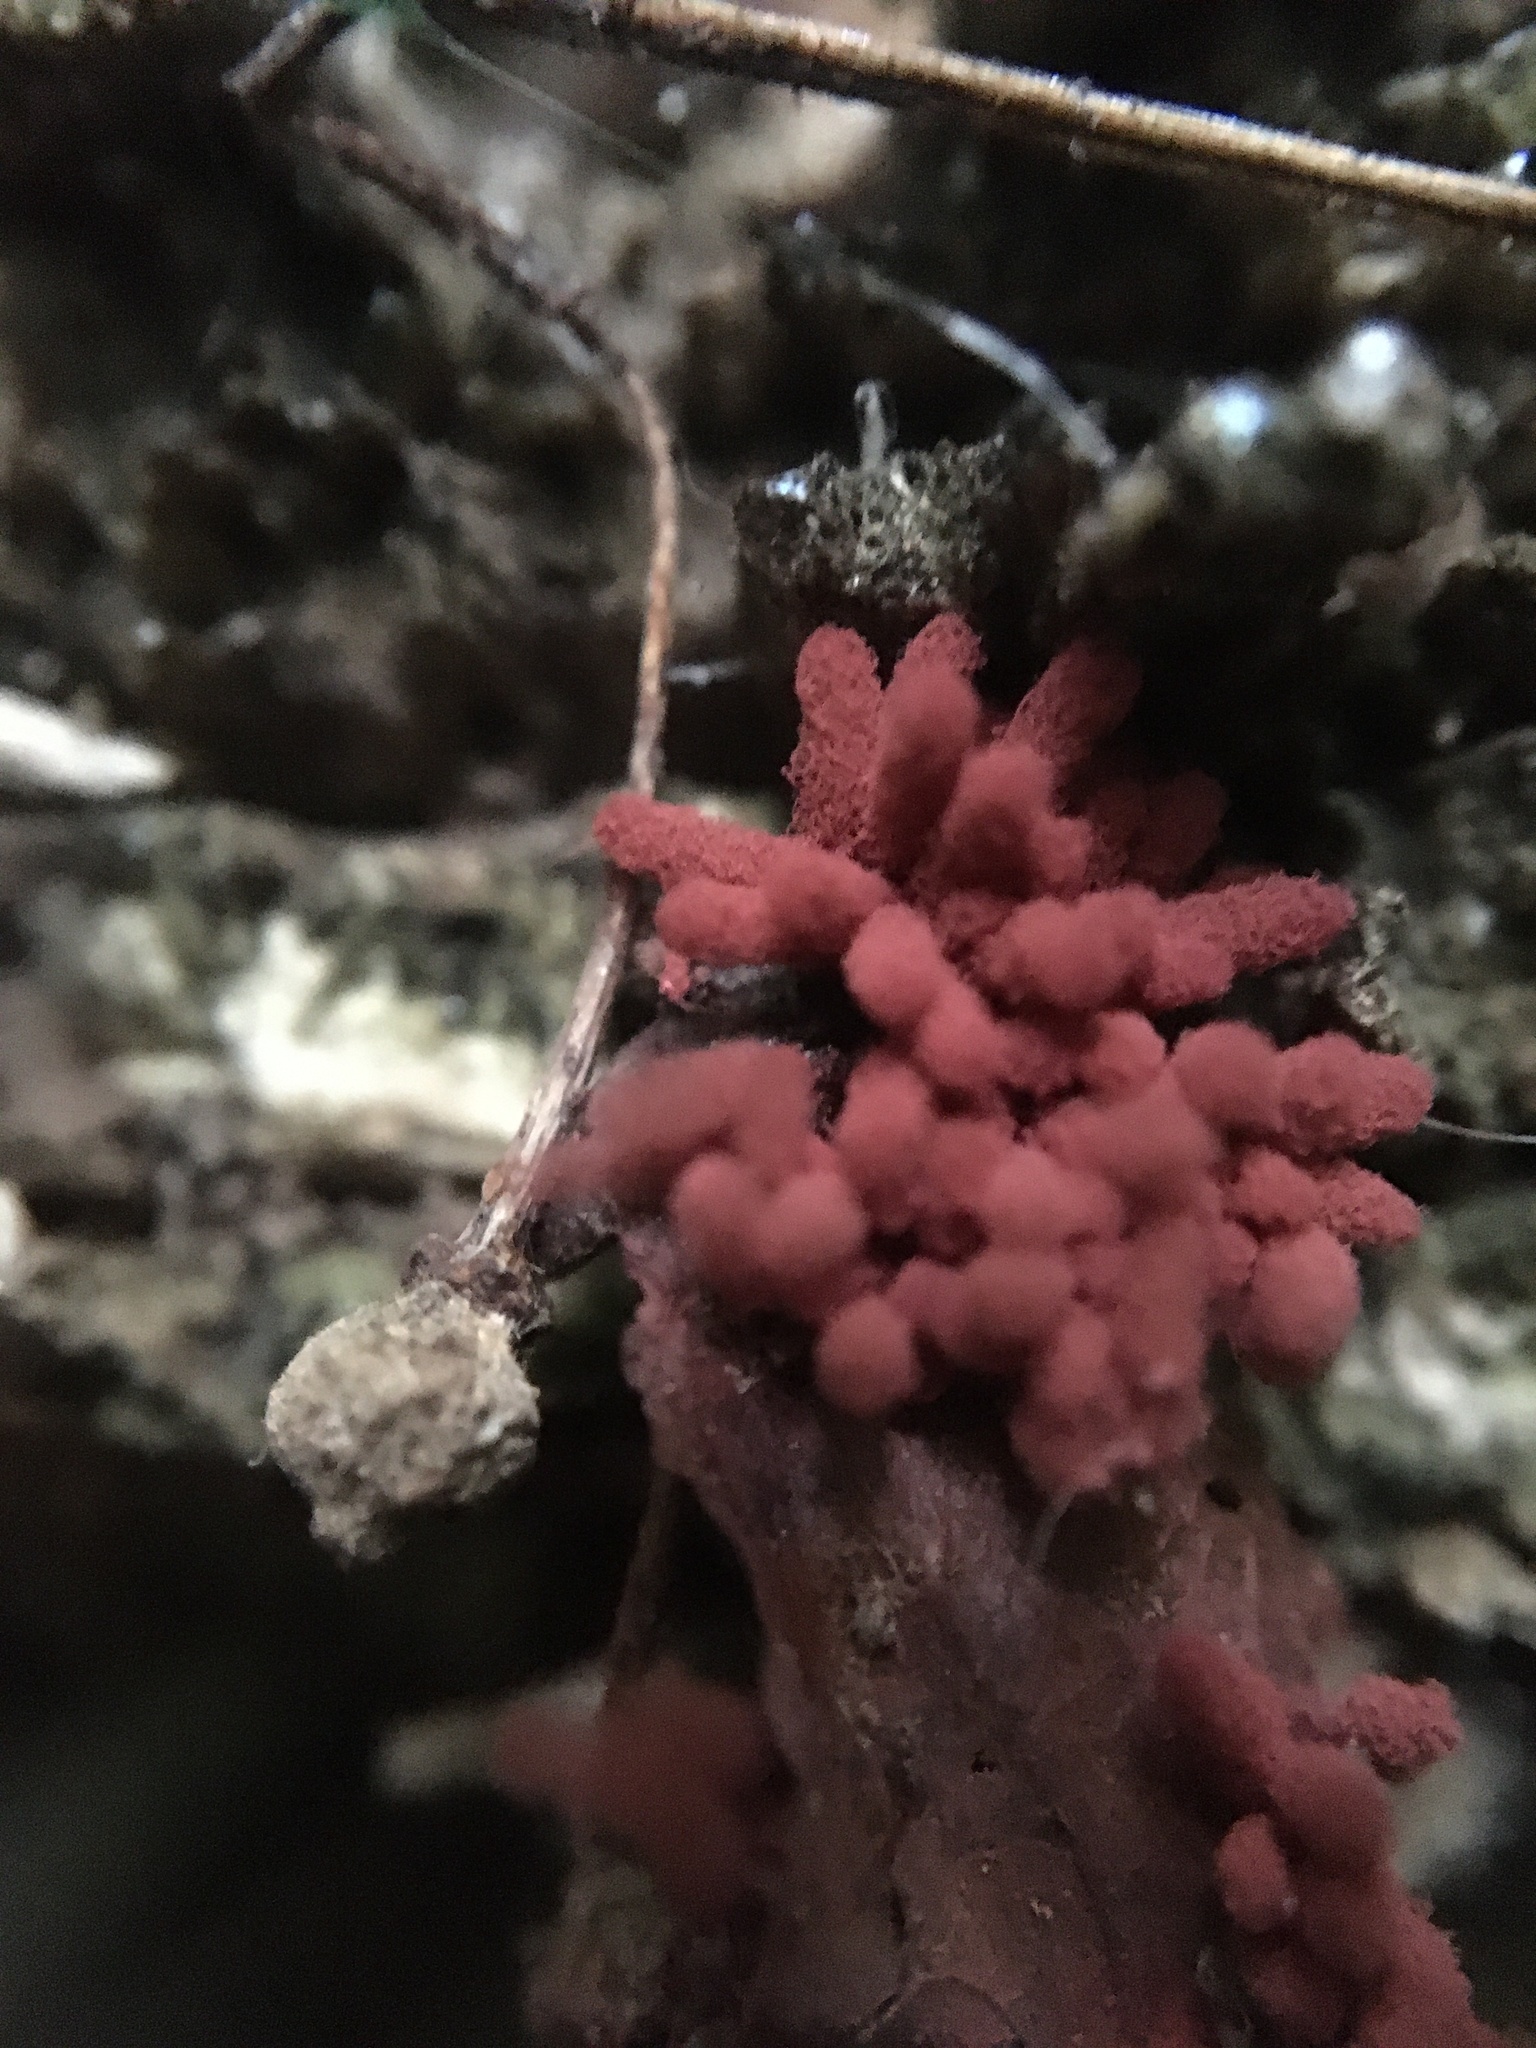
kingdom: Protozoa
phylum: Mycetozoa
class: Myxomycetes
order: Trichiales
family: Arcyriaceae
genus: Arcyria
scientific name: Arcyria denudata
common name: Carnival candy slime mold
